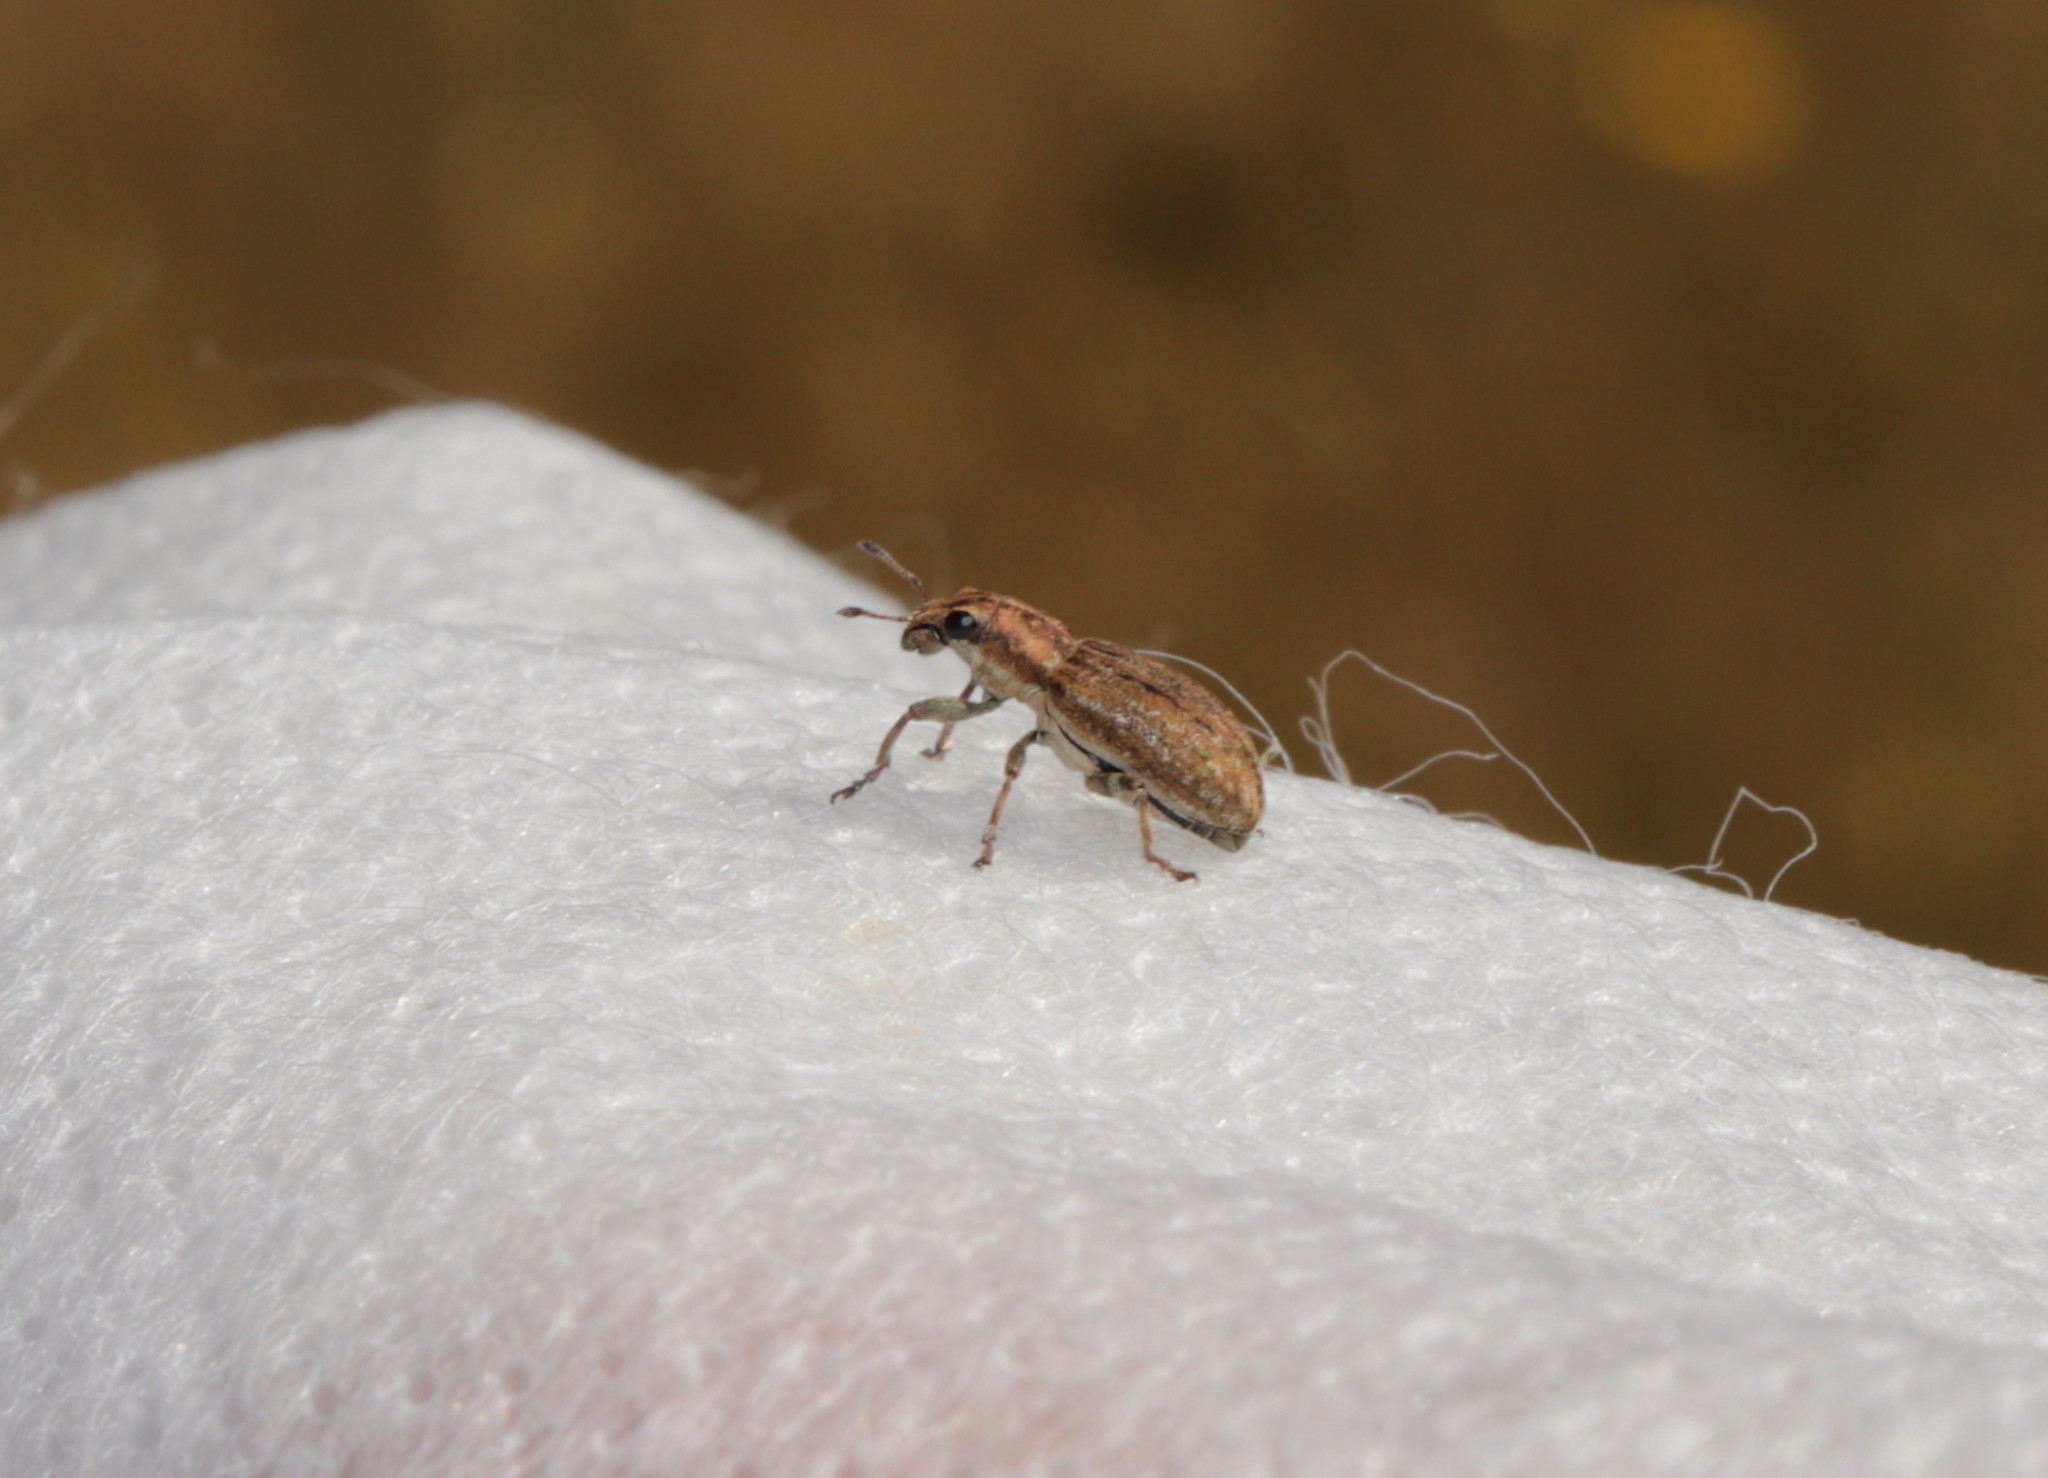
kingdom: Animalia
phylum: Arthropoda
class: Insecta
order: Coleoptera
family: Curculionidae
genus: Sitona
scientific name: Sitona obsoletus
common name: Weevil
